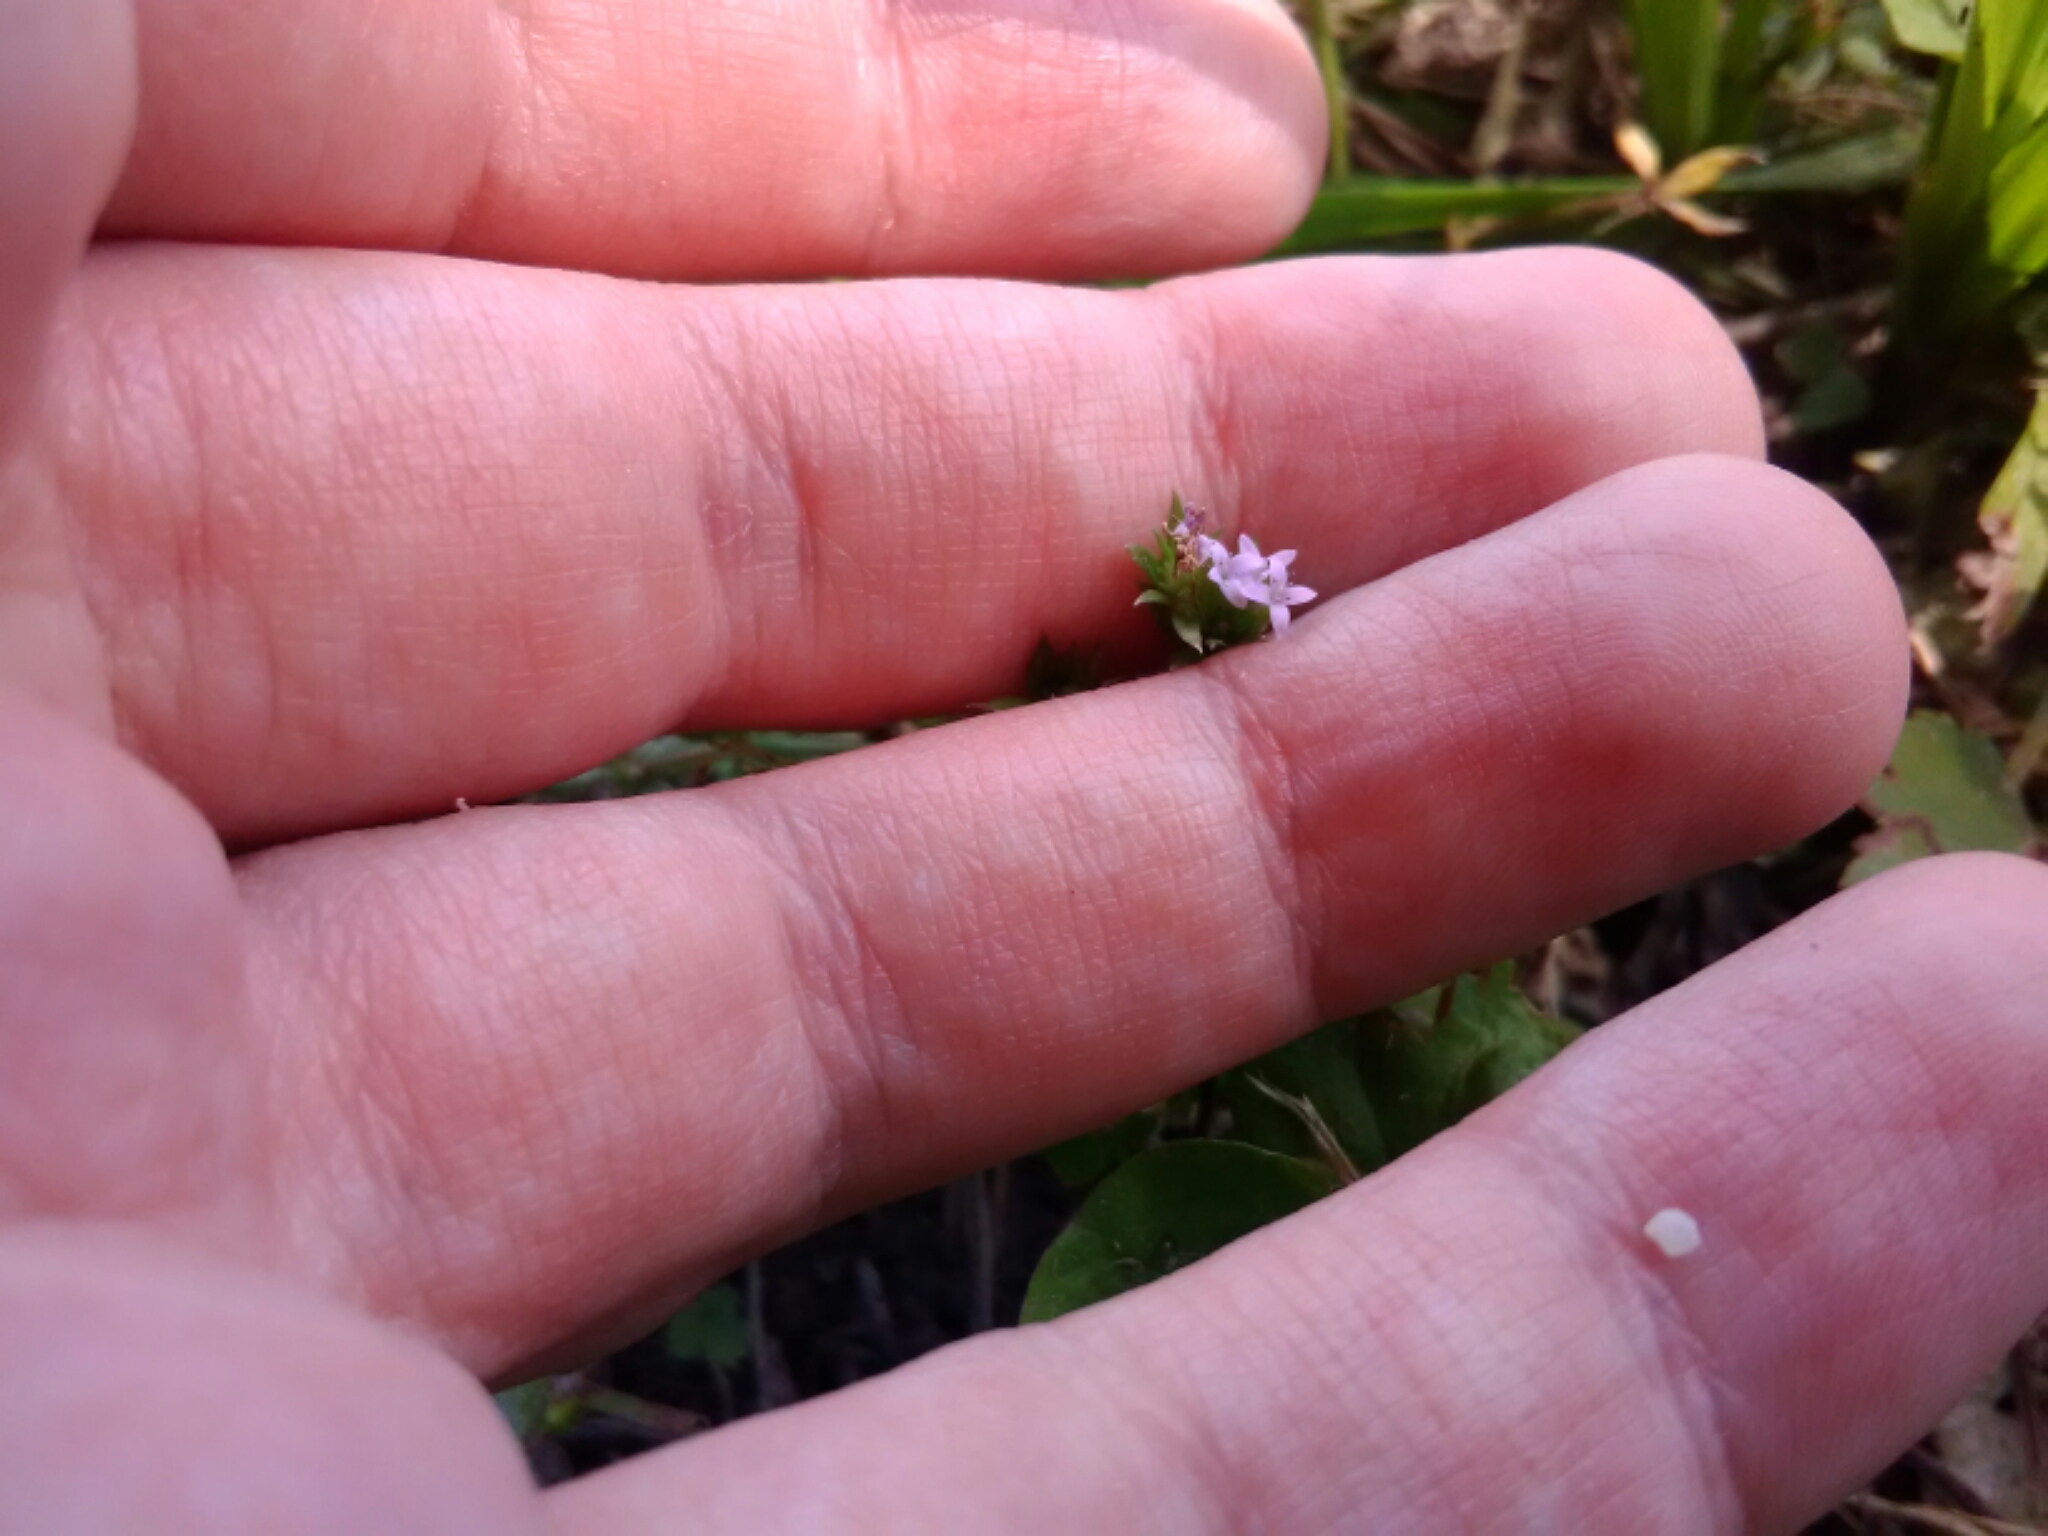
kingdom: Plantae
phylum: Tracheophyta
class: Magnoliopsida
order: Gentianales
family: Rubiaceae
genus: Sherardia
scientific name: Sherardia arvensis
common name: Field madder
